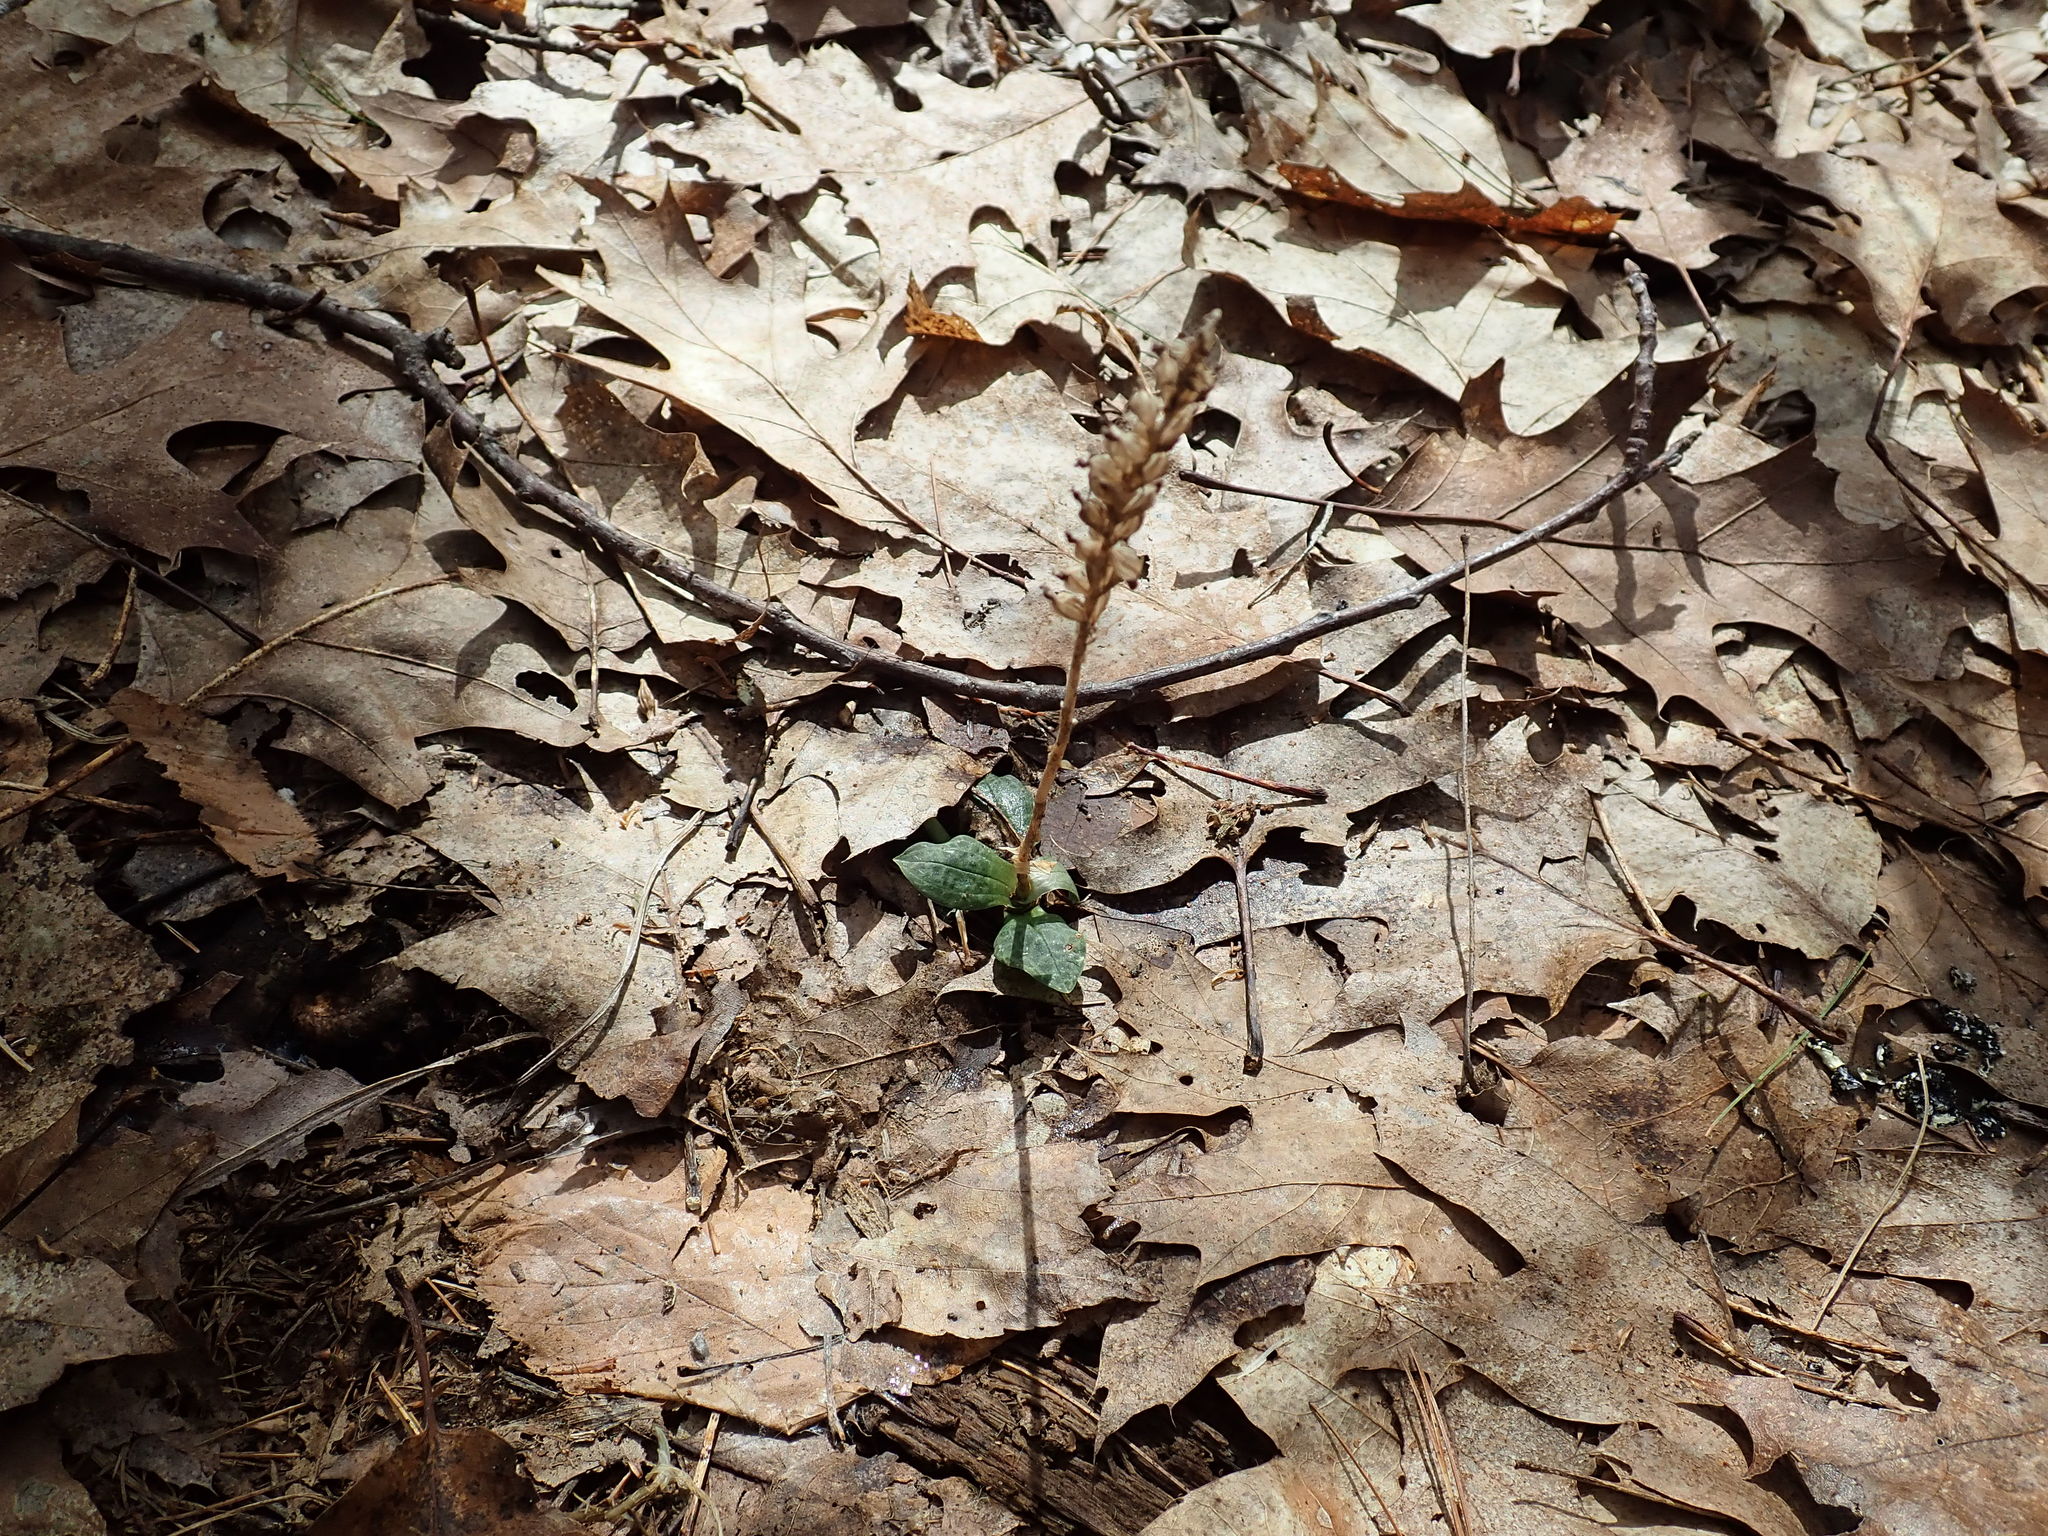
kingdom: Plantae
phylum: Tracheophyta
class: Liliopsida
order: Asparagales
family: Orchidaceae
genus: Goodyera
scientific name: Goodyera tesselata
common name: Checkered rattlesnake-plantain
